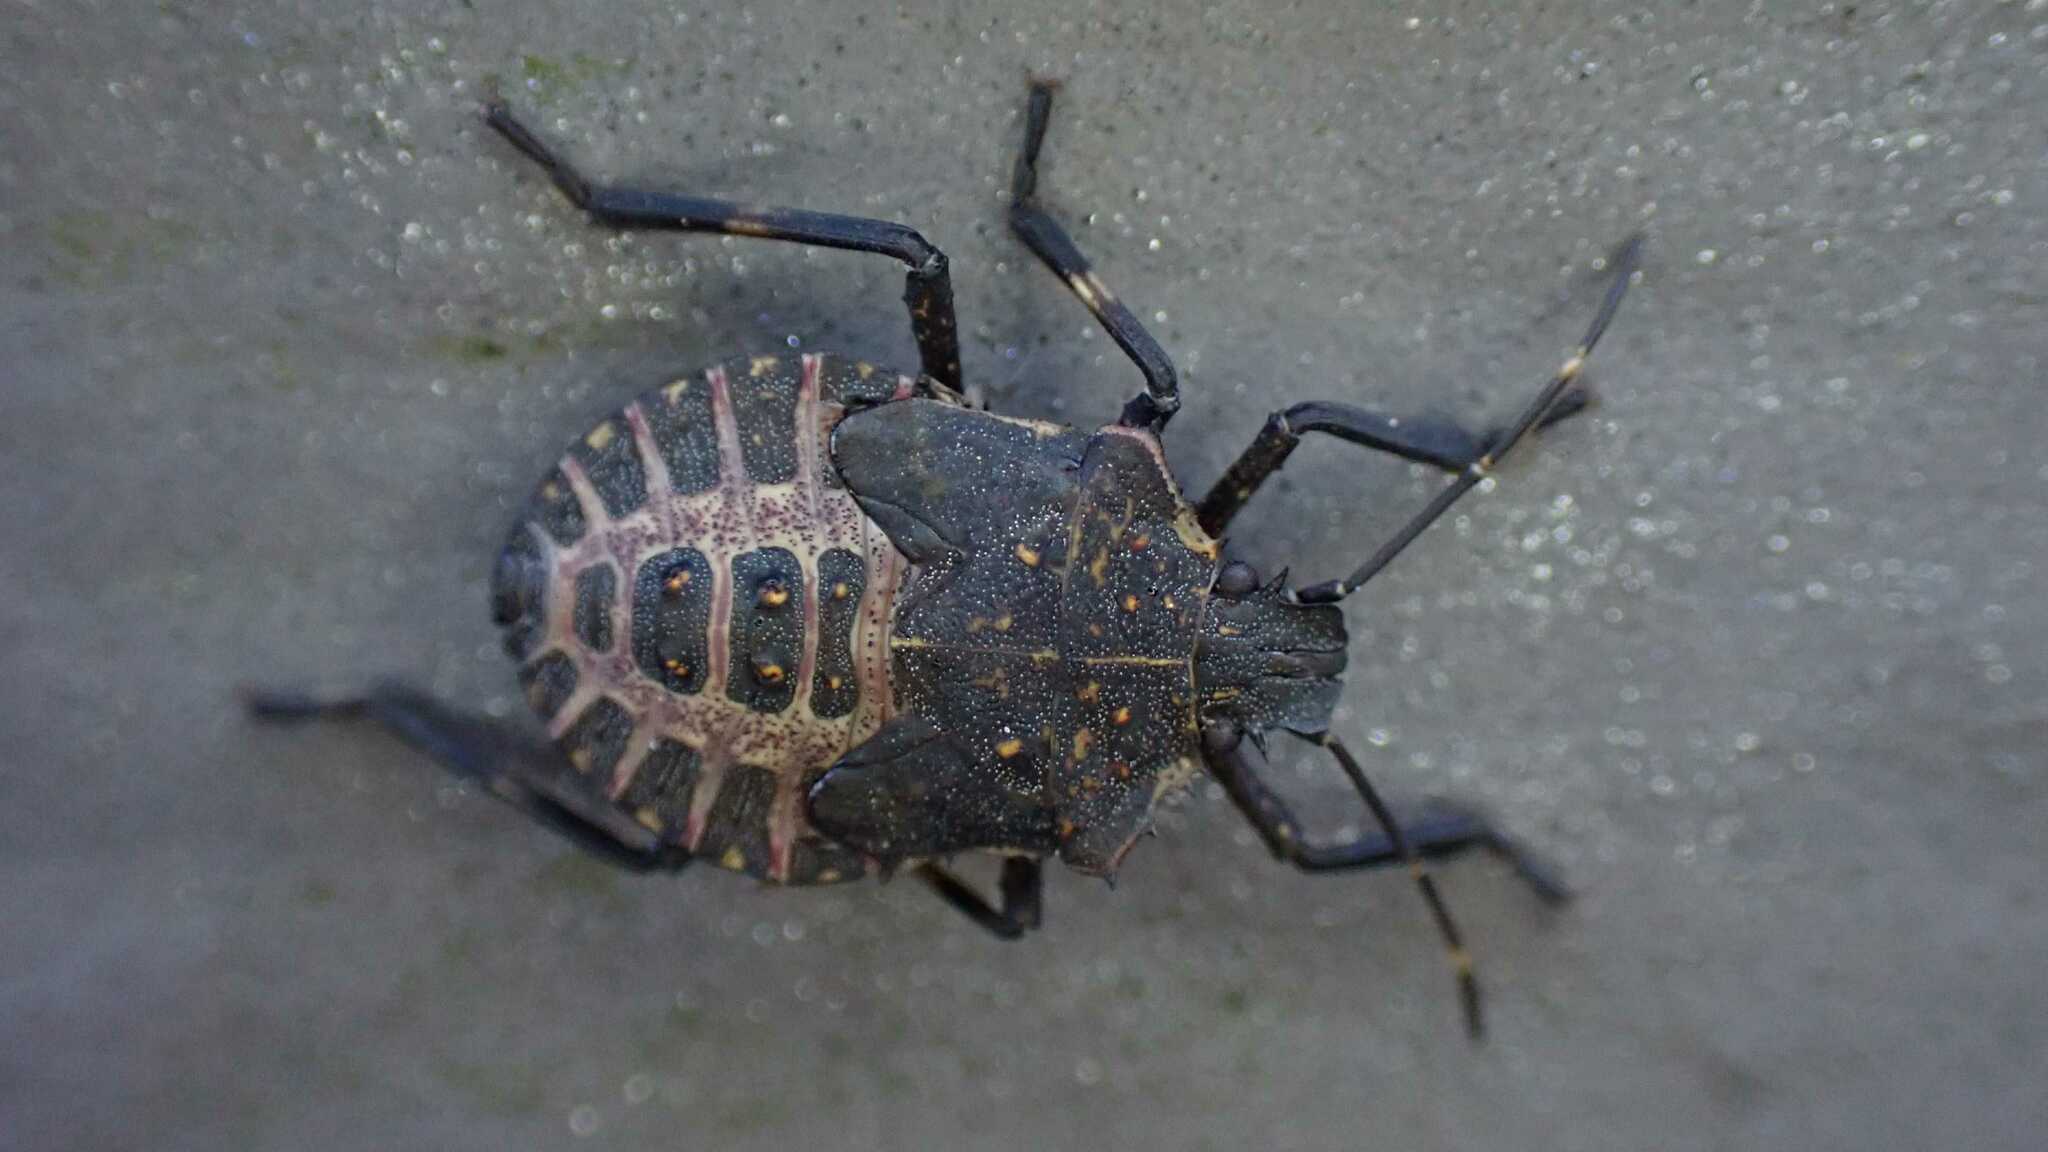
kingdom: Animalia
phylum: Arthropoda
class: Insecta
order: Hemiptera
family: Pentatomidae
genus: Halyomorpha
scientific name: Halyomorpha halys
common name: Brown marmorated stink bug
